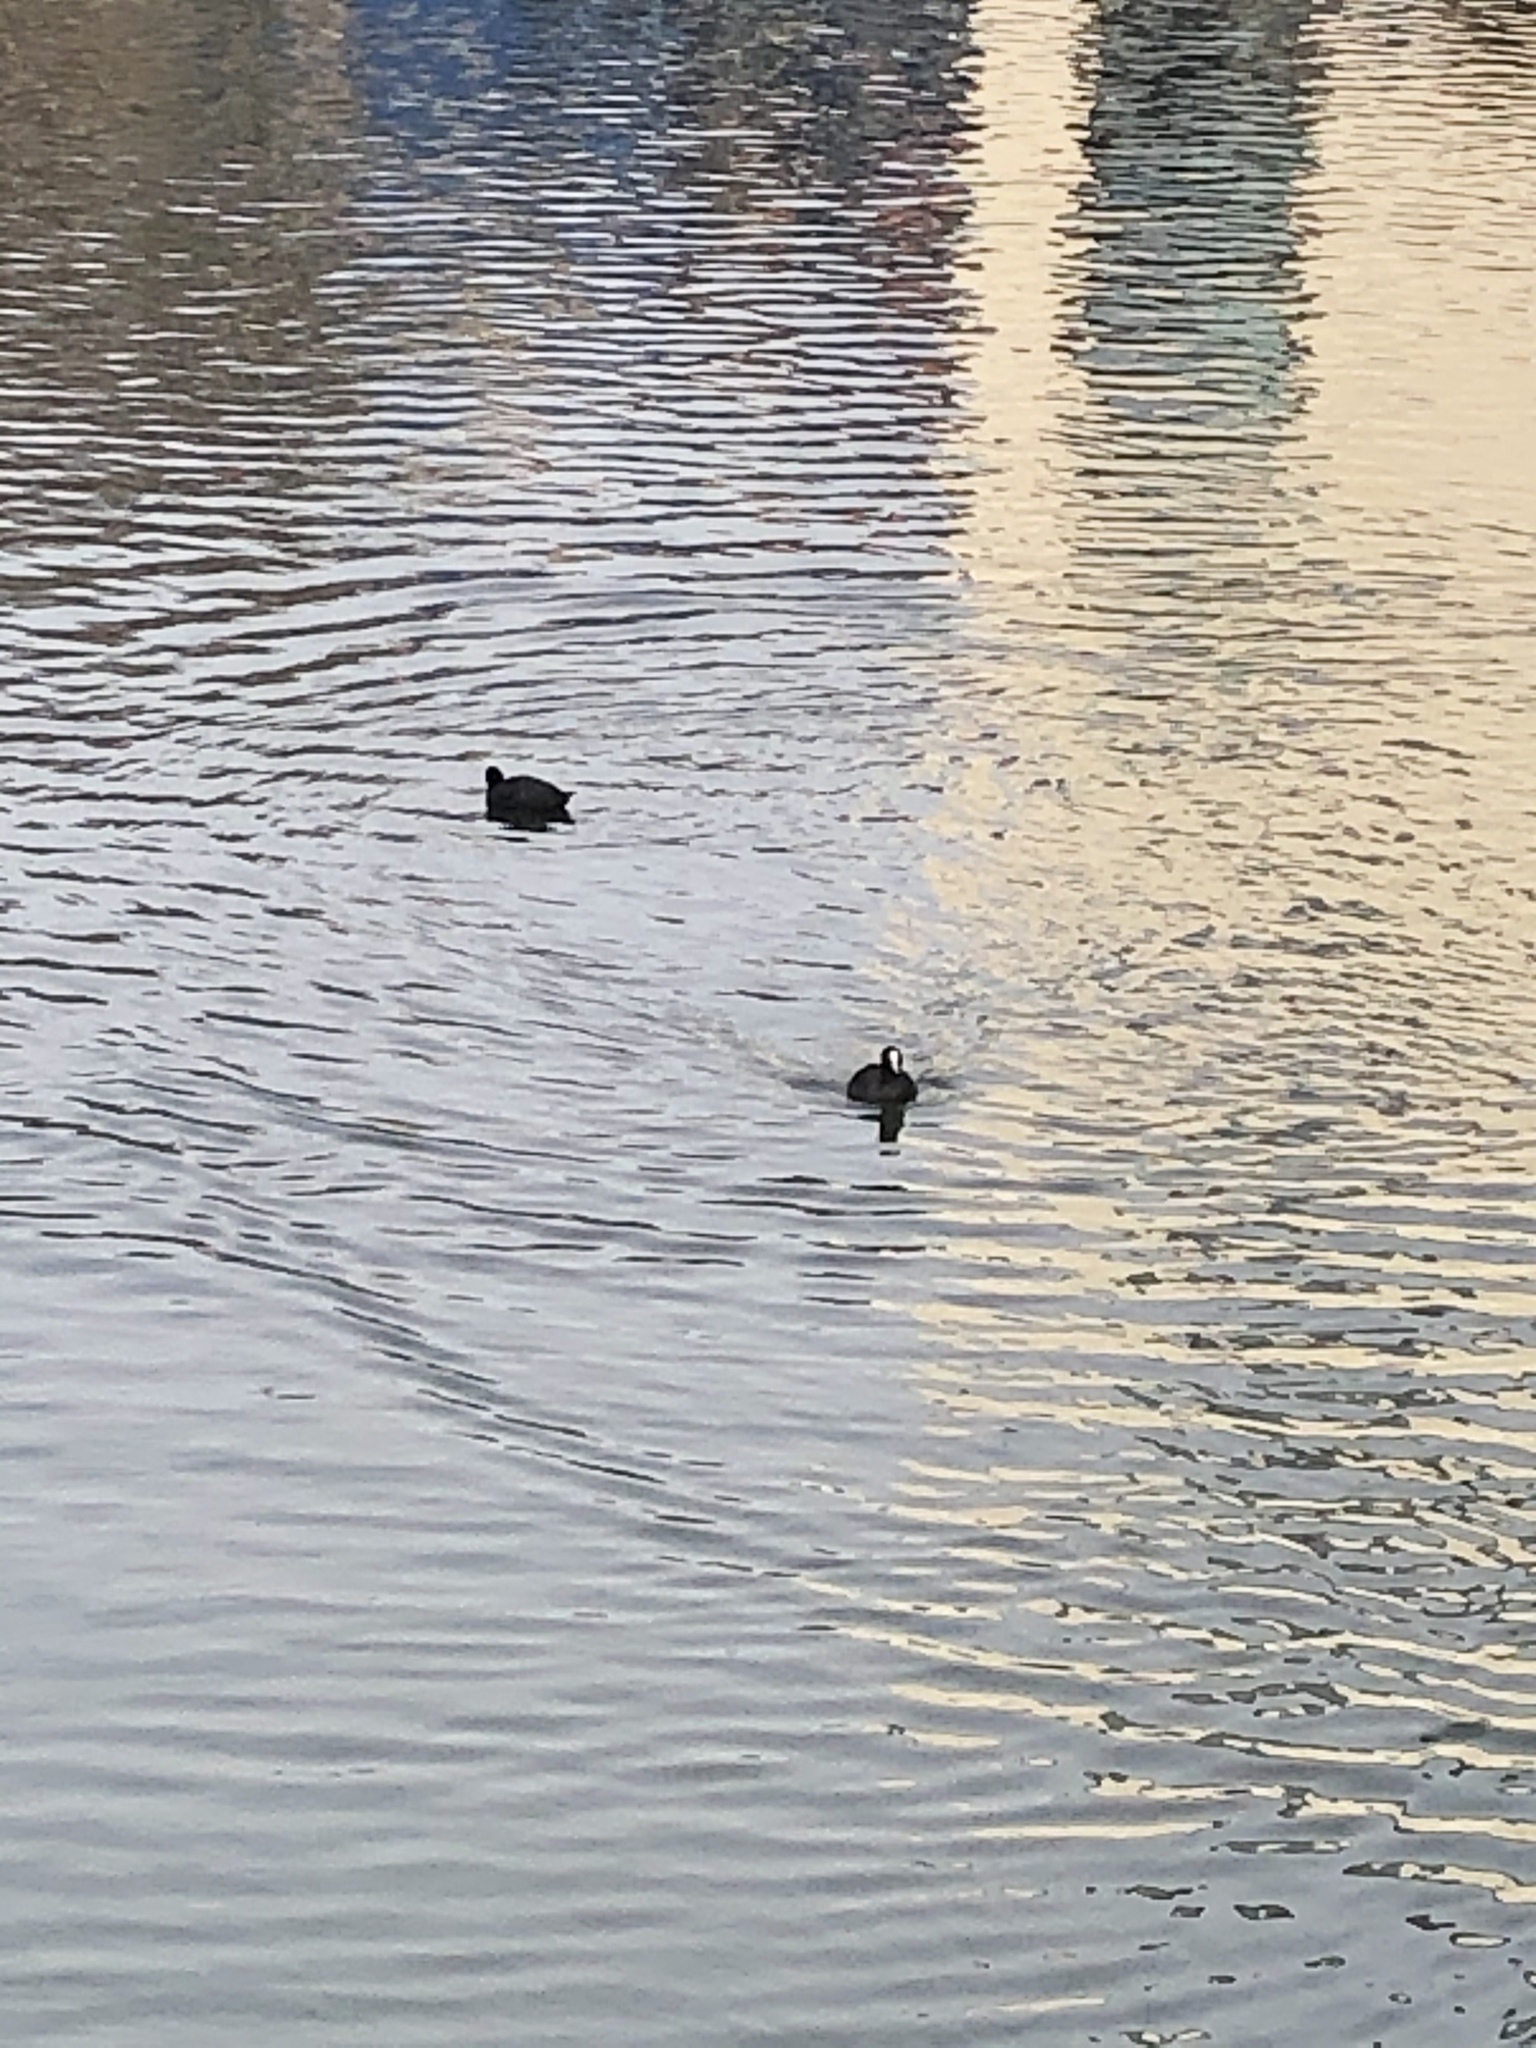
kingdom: Animalia
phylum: Chordata
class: Aves
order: Gruiformes
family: Rallidae
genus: Fulica
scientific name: Fulica atra
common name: Eurasian coot
